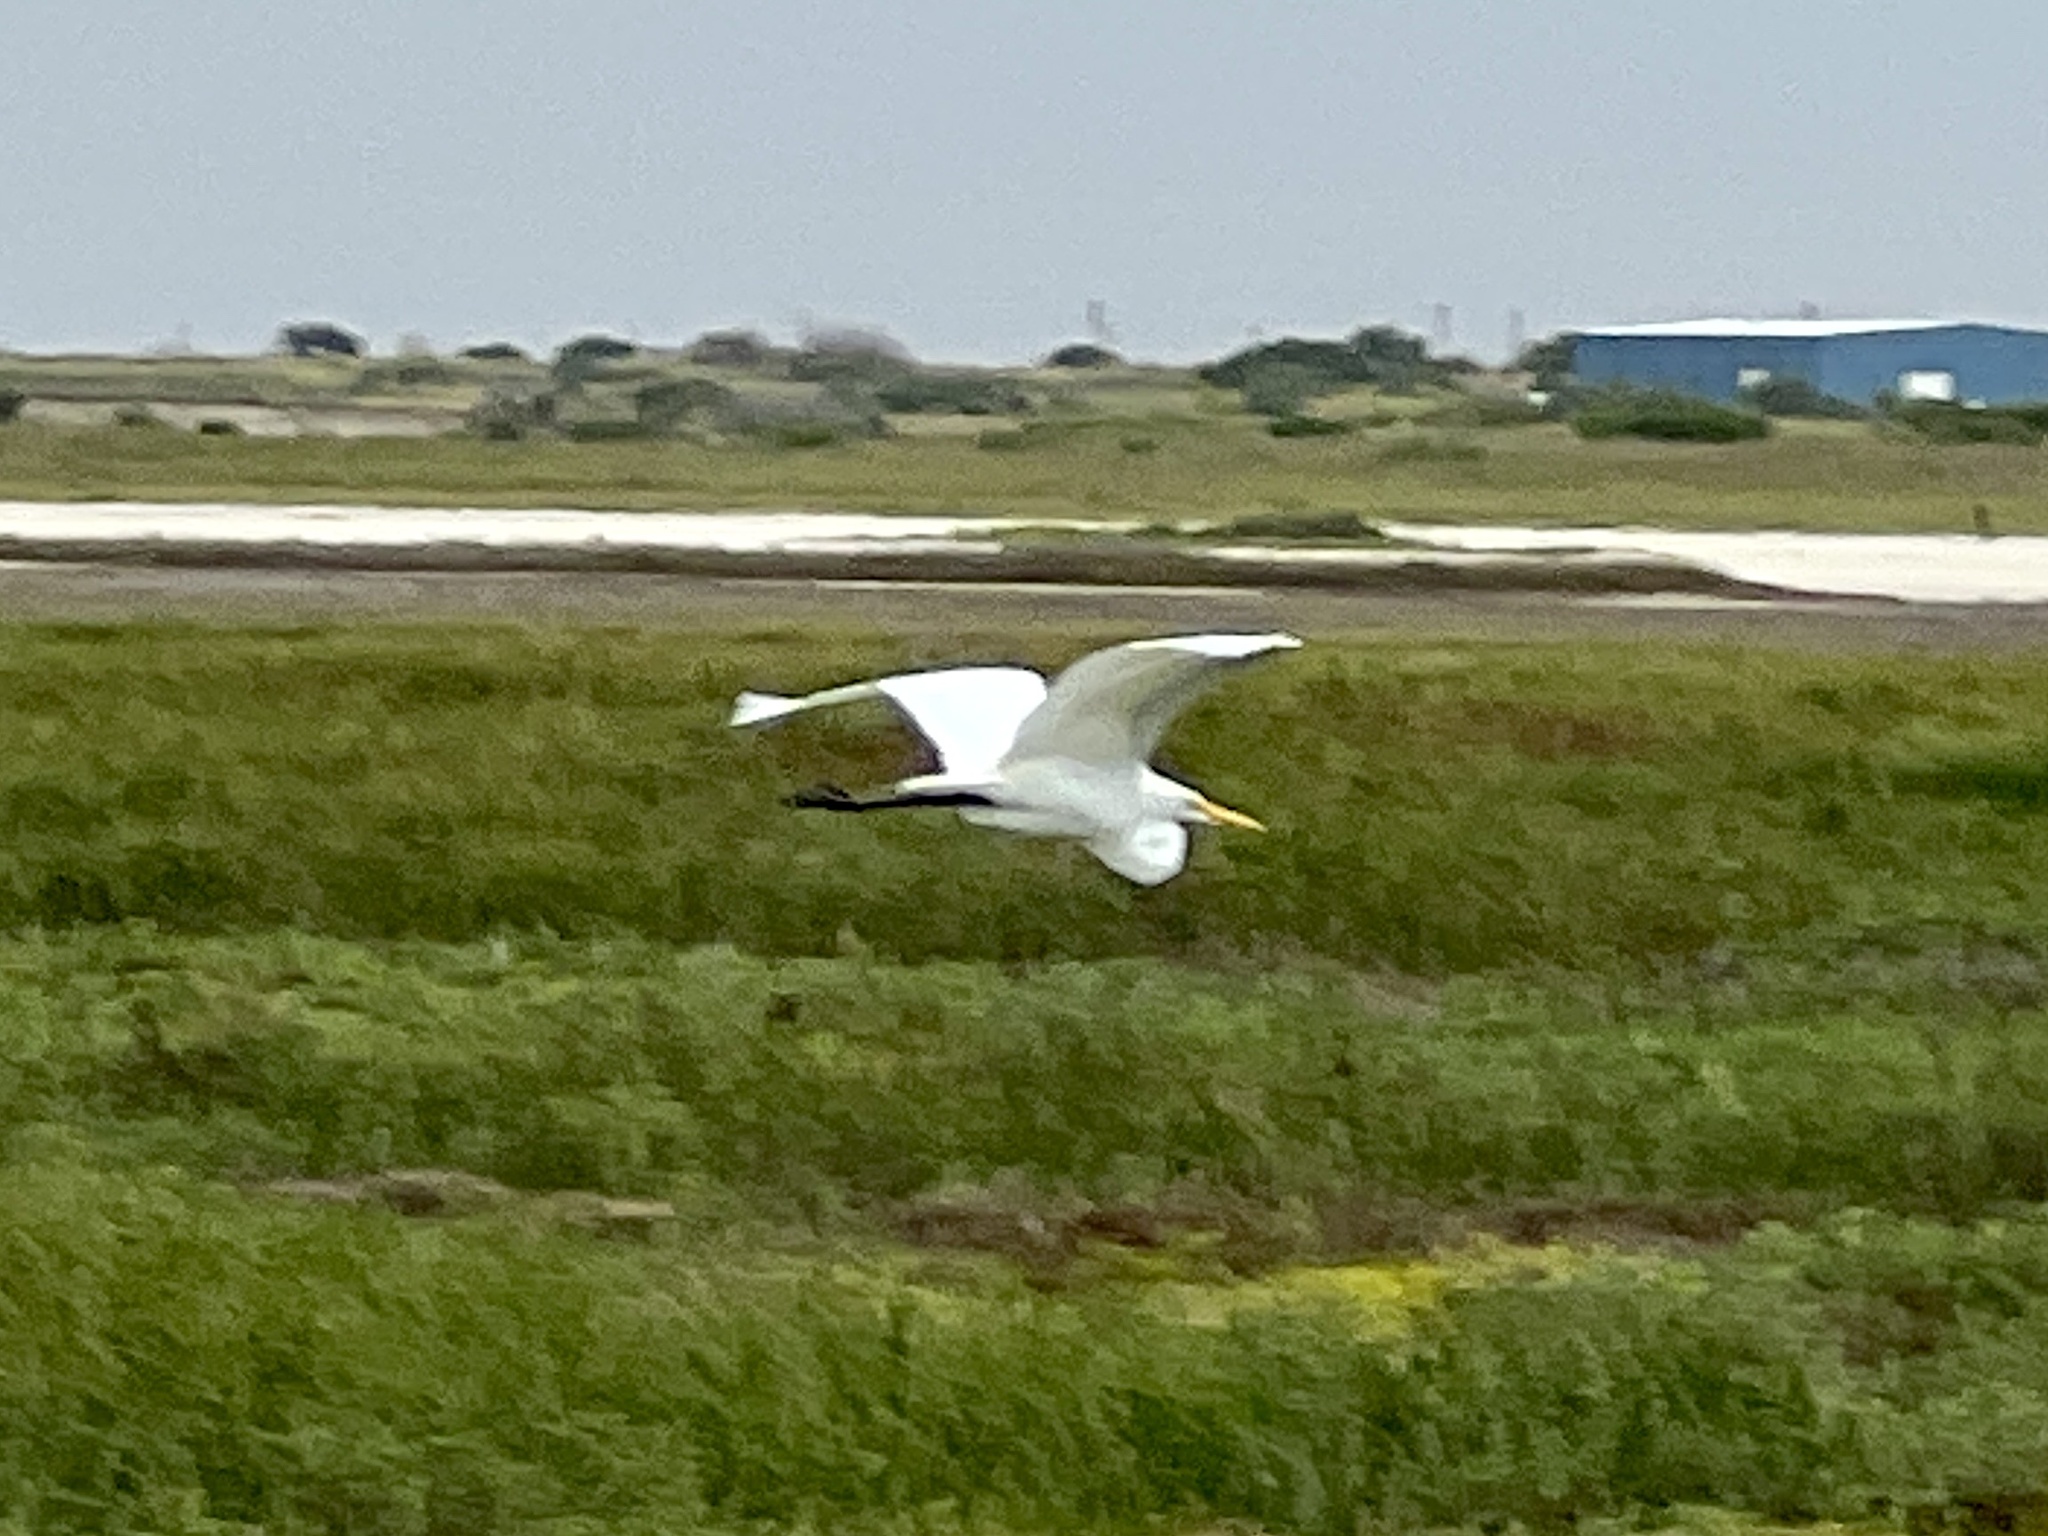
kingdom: Animalia
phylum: Chordata
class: Aves
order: Pelecaniformes
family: Ardeidae
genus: Ardea
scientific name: Ardea alba
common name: Great egret
